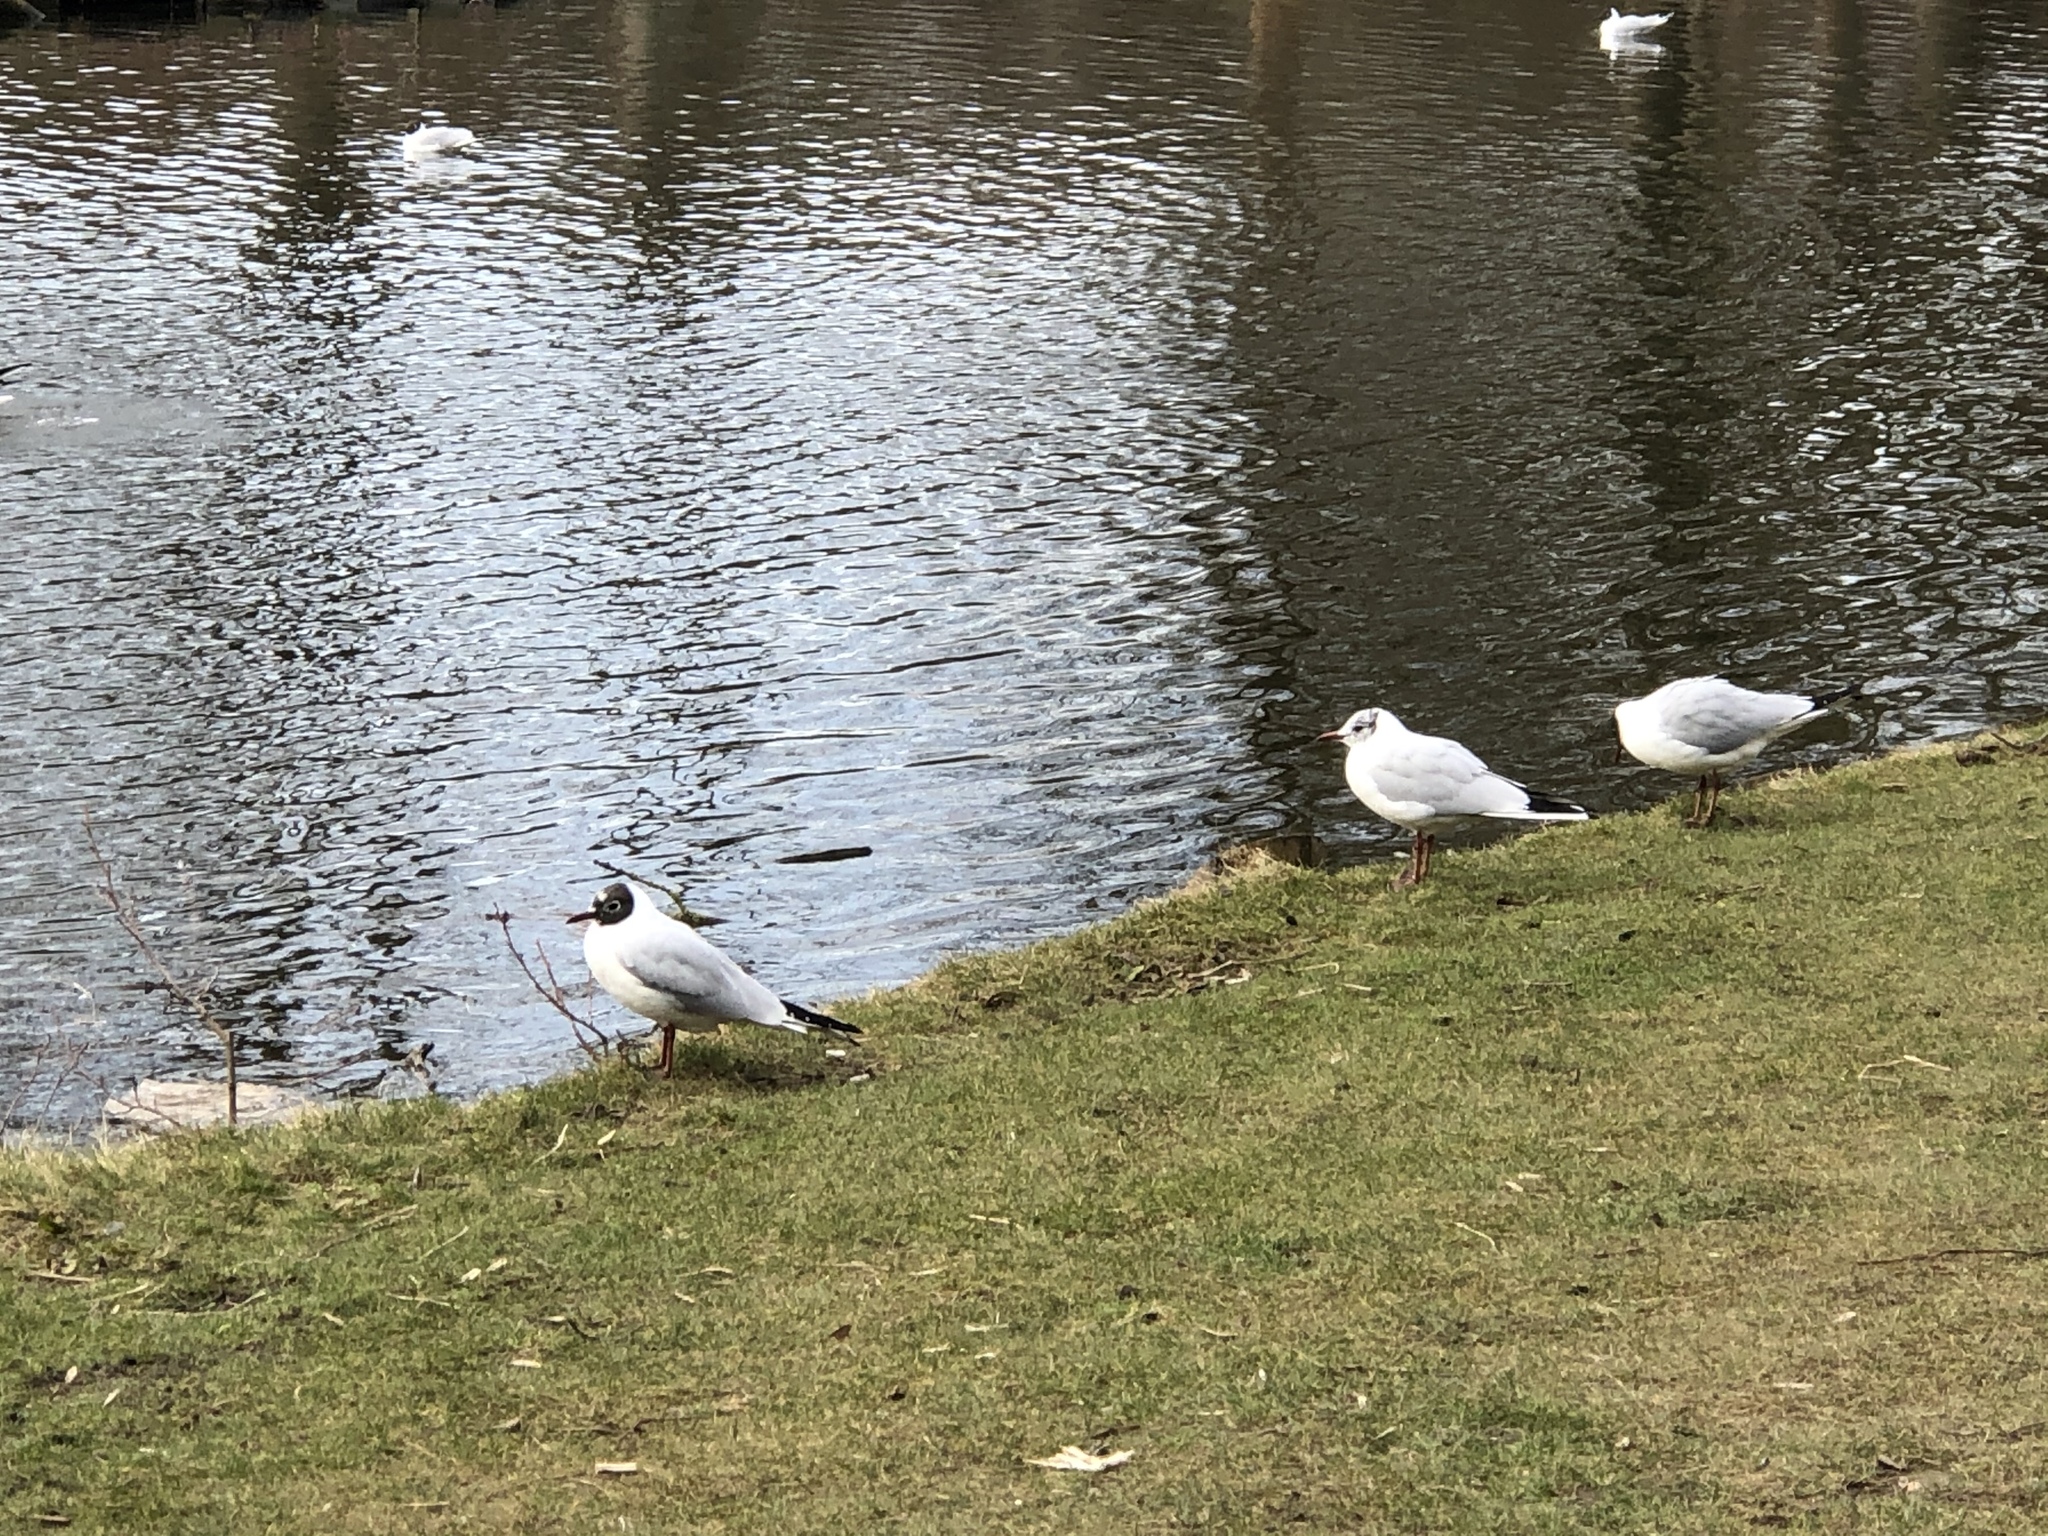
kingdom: Animalia
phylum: Chordata
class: Aves
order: Charadriiformes
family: Laridae
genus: Chroicocephalus
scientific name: Chroicocephalus ridibundus
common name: Black-headed gull
